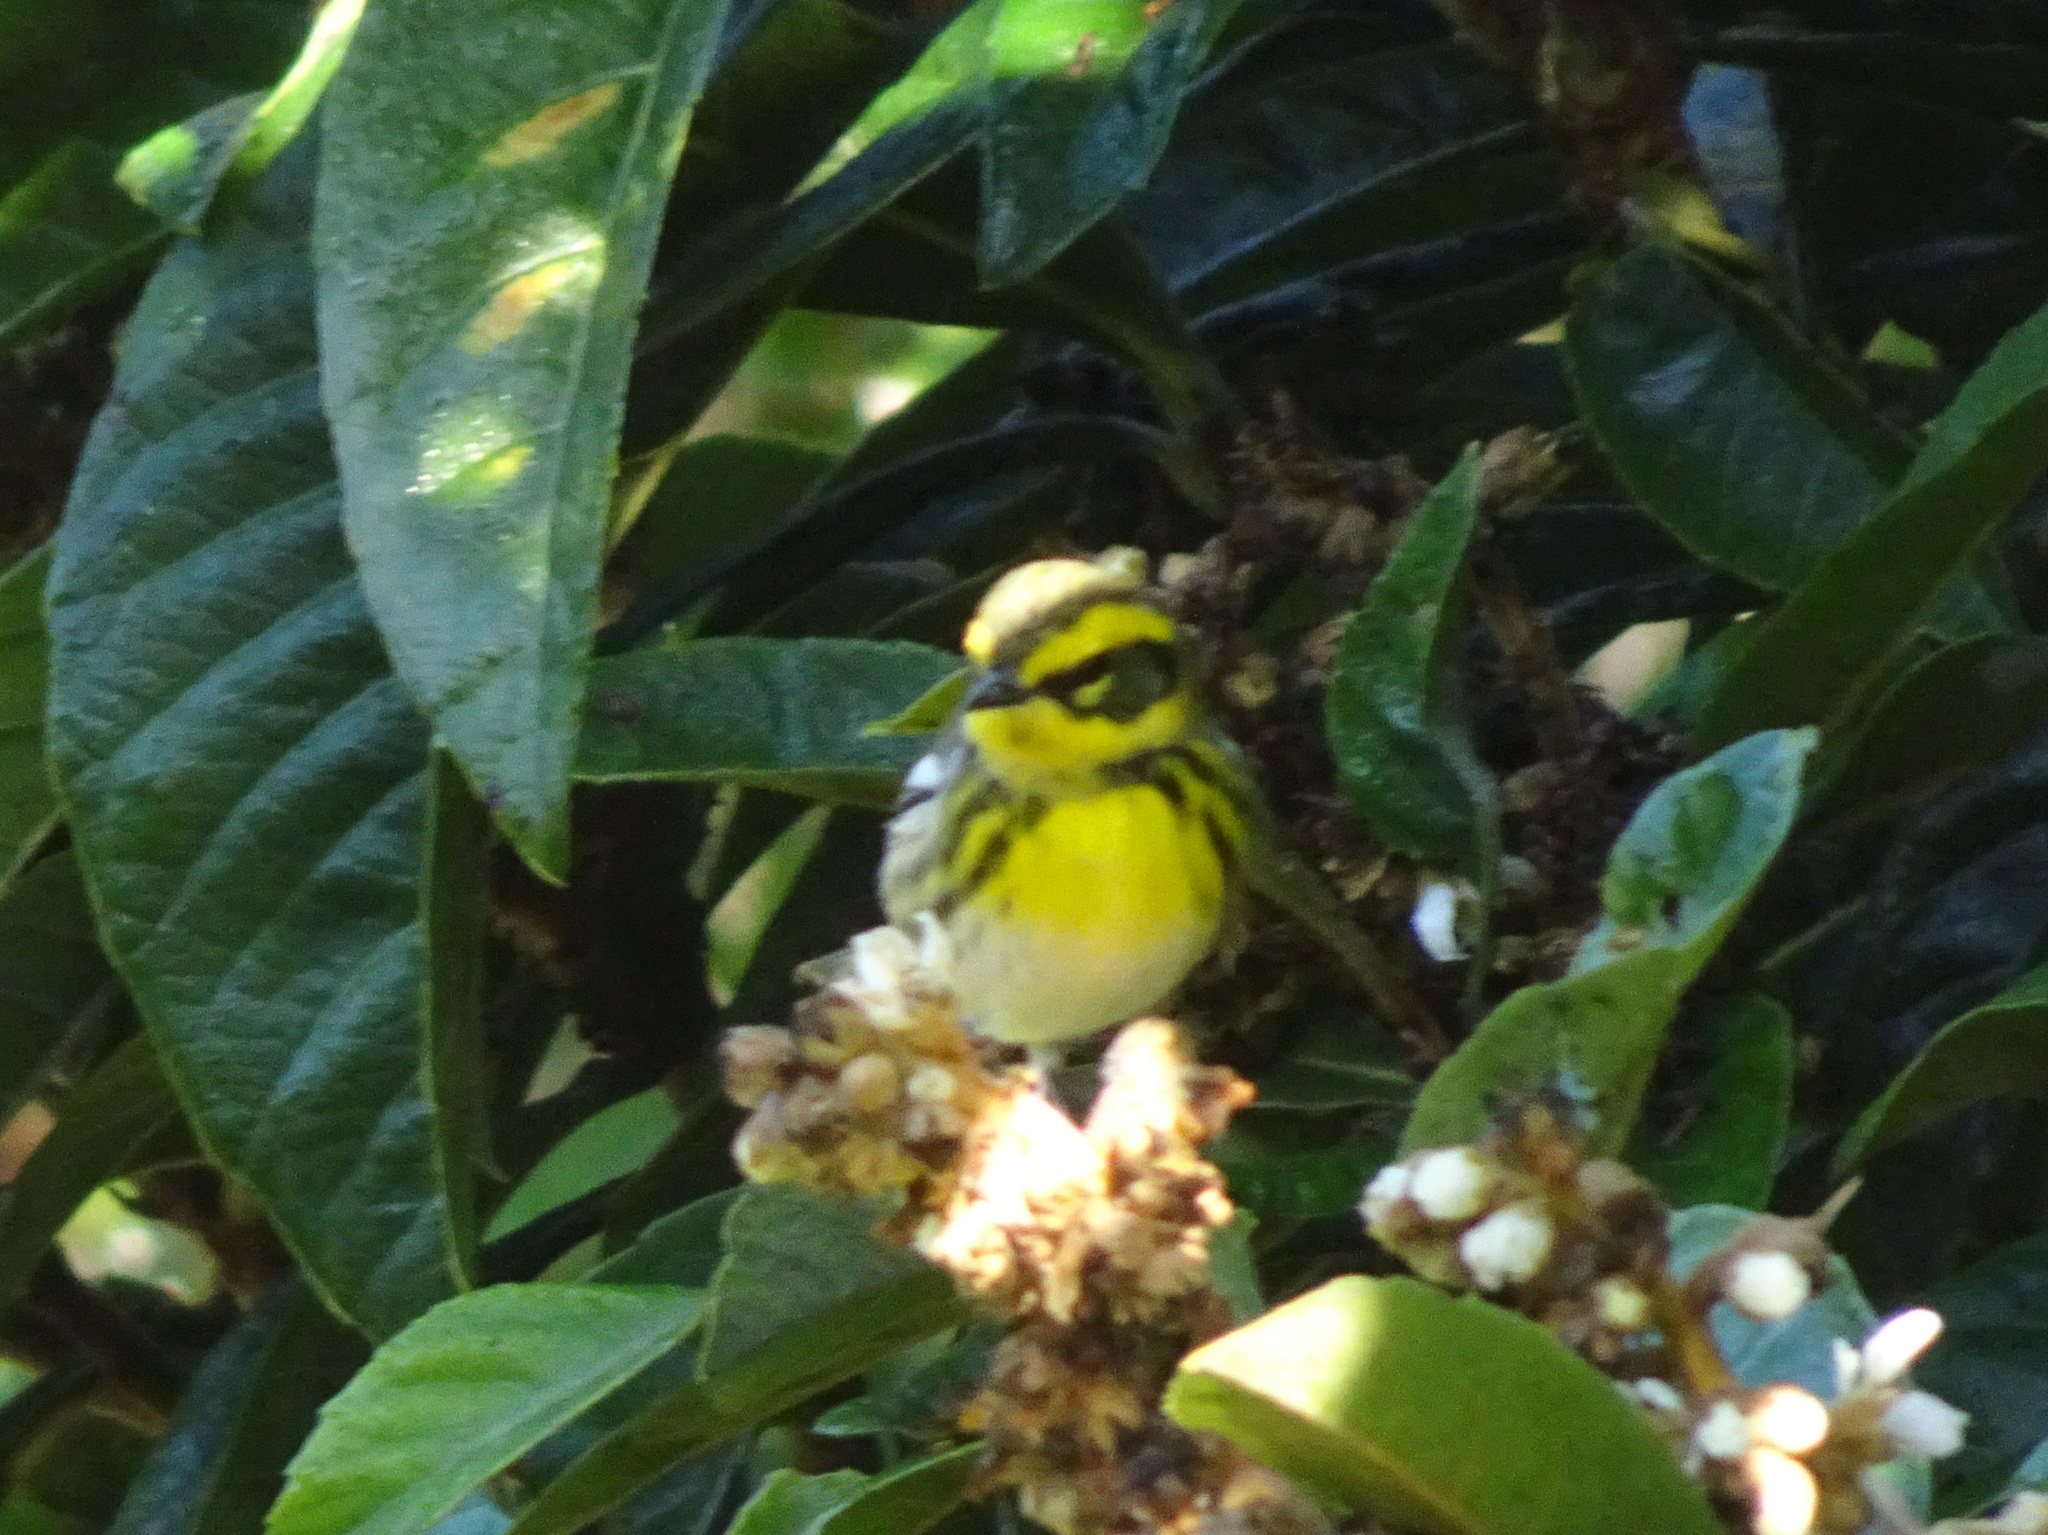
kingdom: Animalia
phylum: Chordata
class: Aves
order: Passeriformes
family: Parulidae
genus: Setophaga
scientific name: Setophaga townsendi
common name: Townsend's warbler
